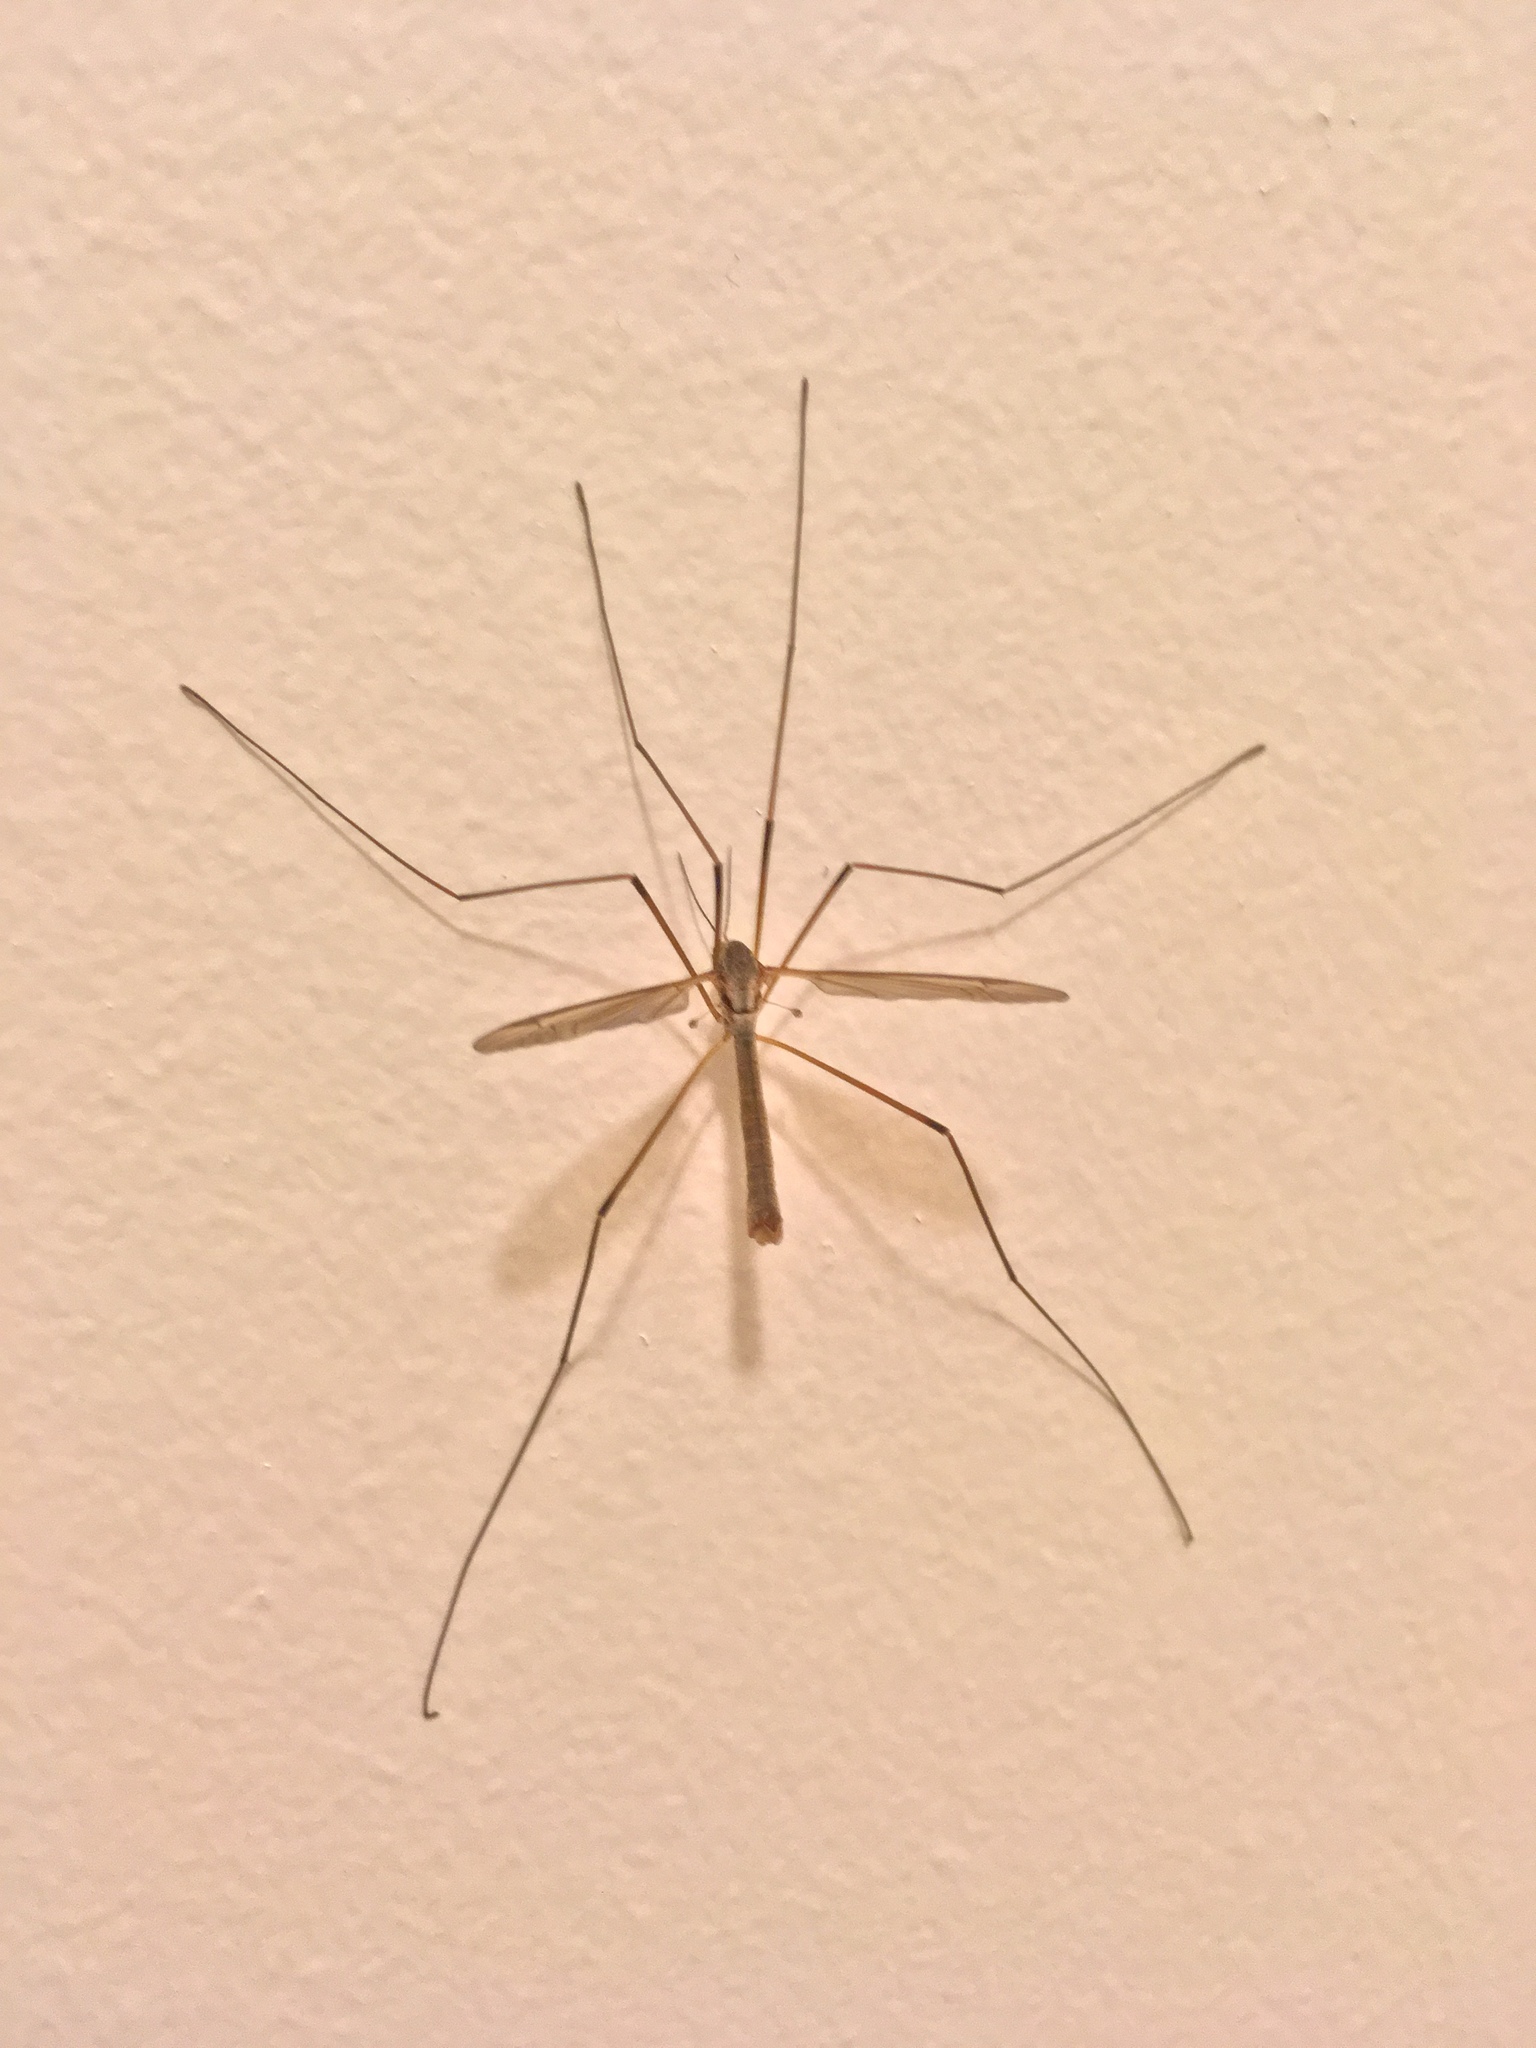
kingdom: Animalia
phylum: Arthropoda
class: Insecta
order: Diptera
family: Tipulidae
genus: Tipula
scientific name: Tipula paludosa
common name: European cranefly
